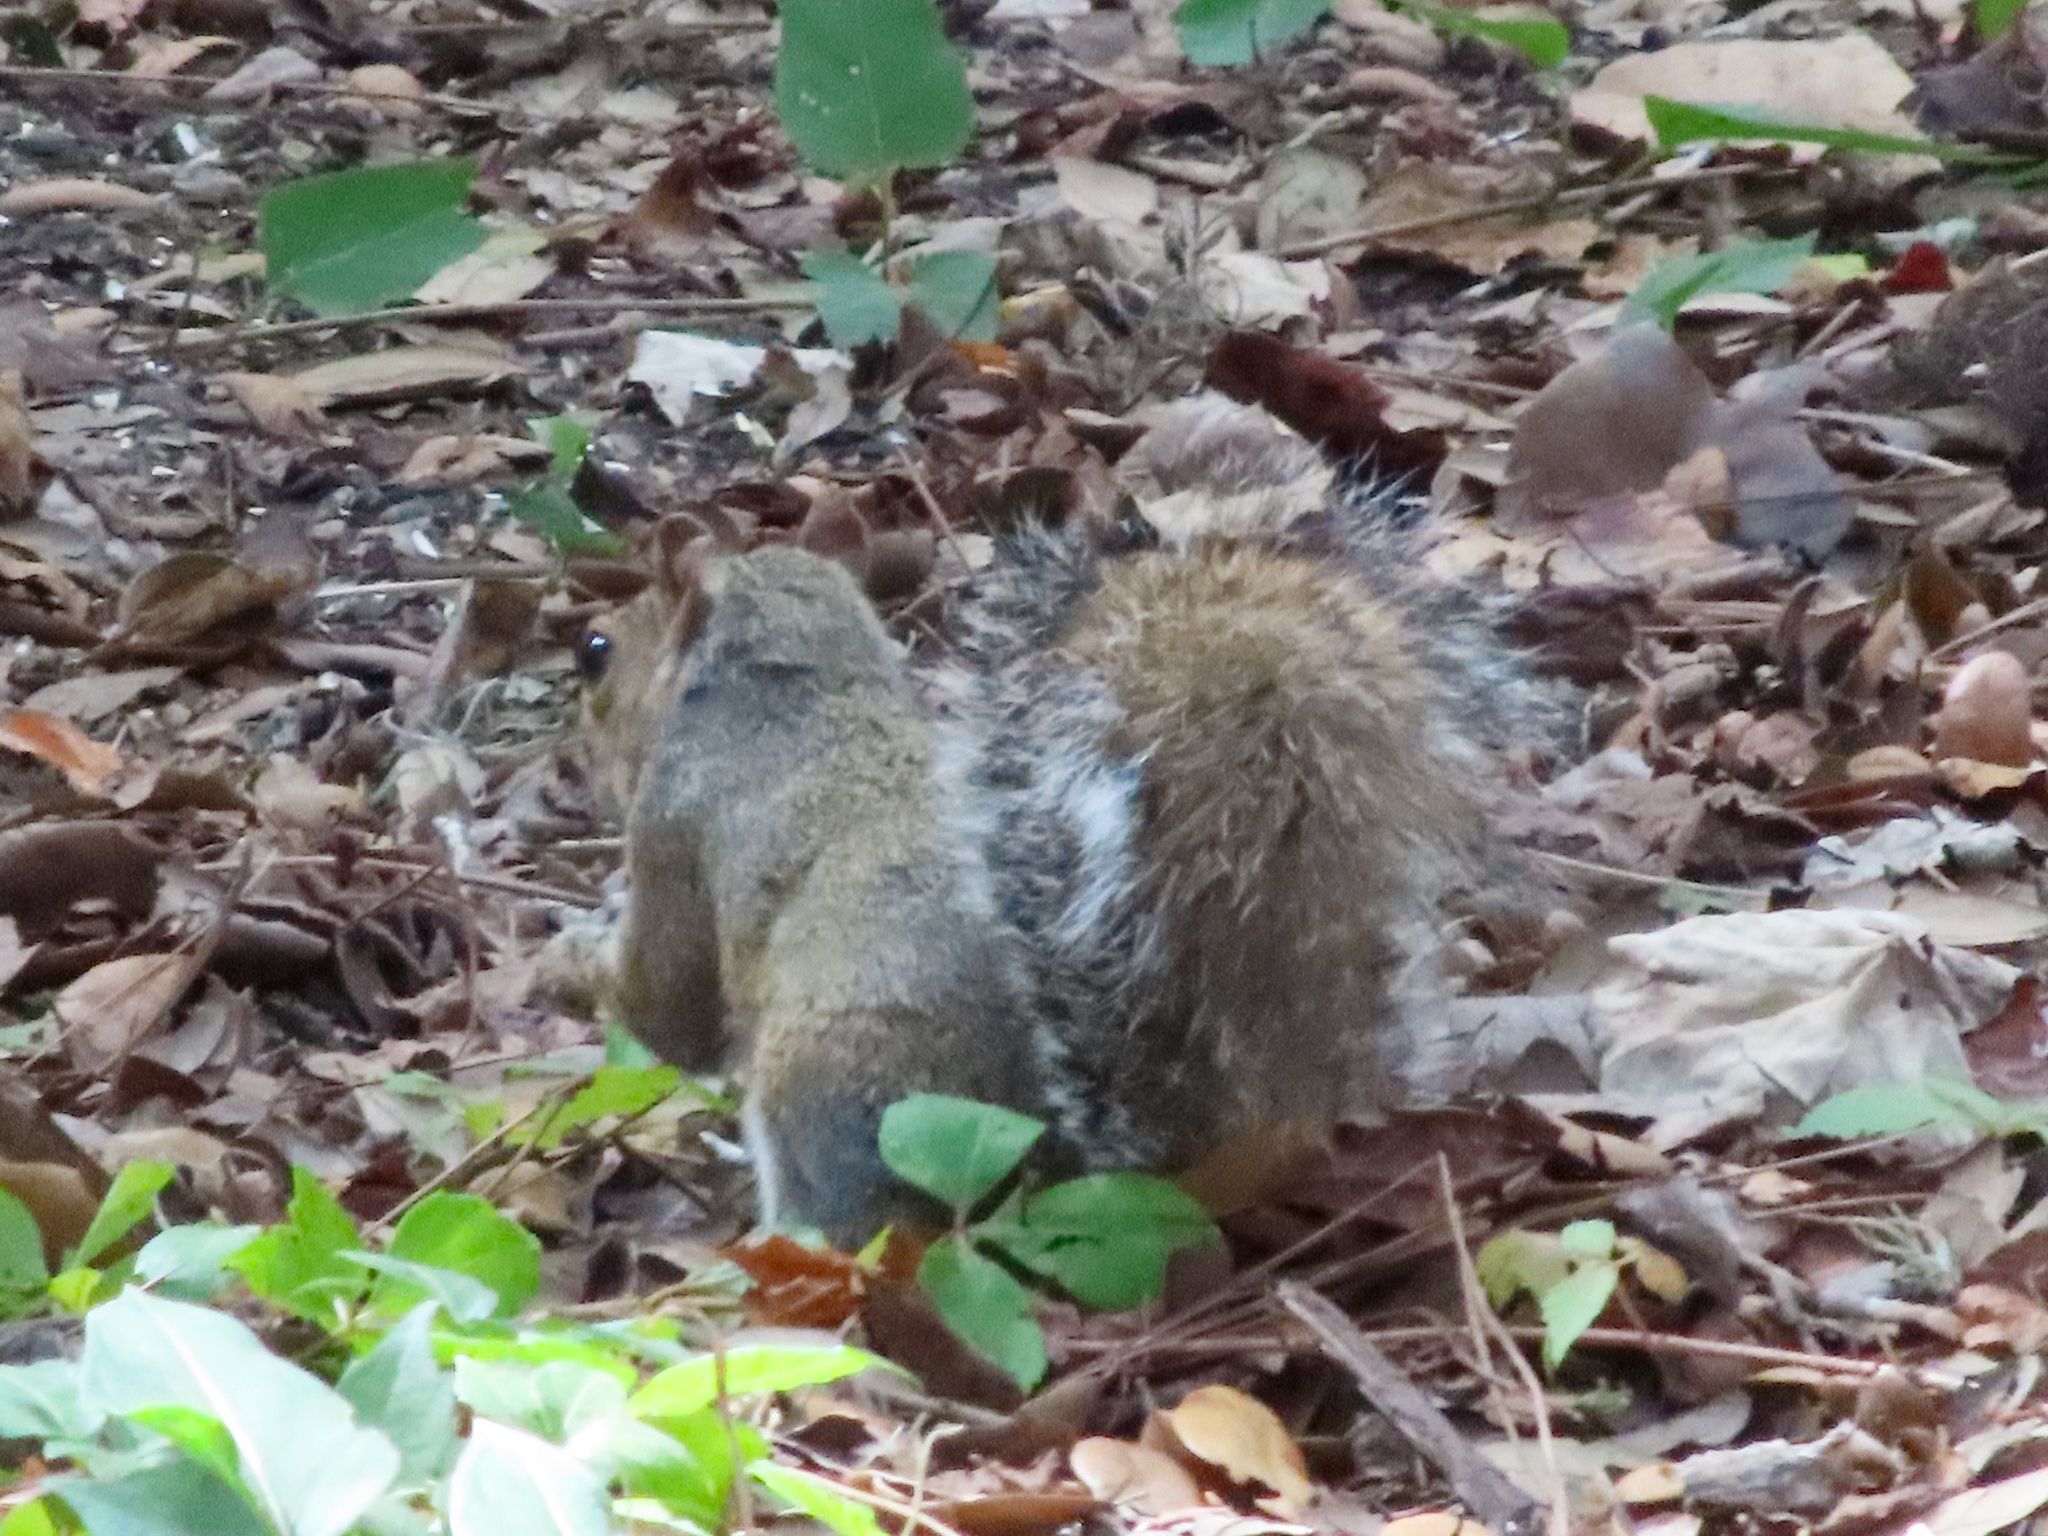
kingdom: Animalia
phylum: Chordata
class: Mammalia
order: Rodentia
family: Sciuridae
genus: Sciurus
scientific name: Sciurus carolinensis
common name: Eastern gray squirrel
